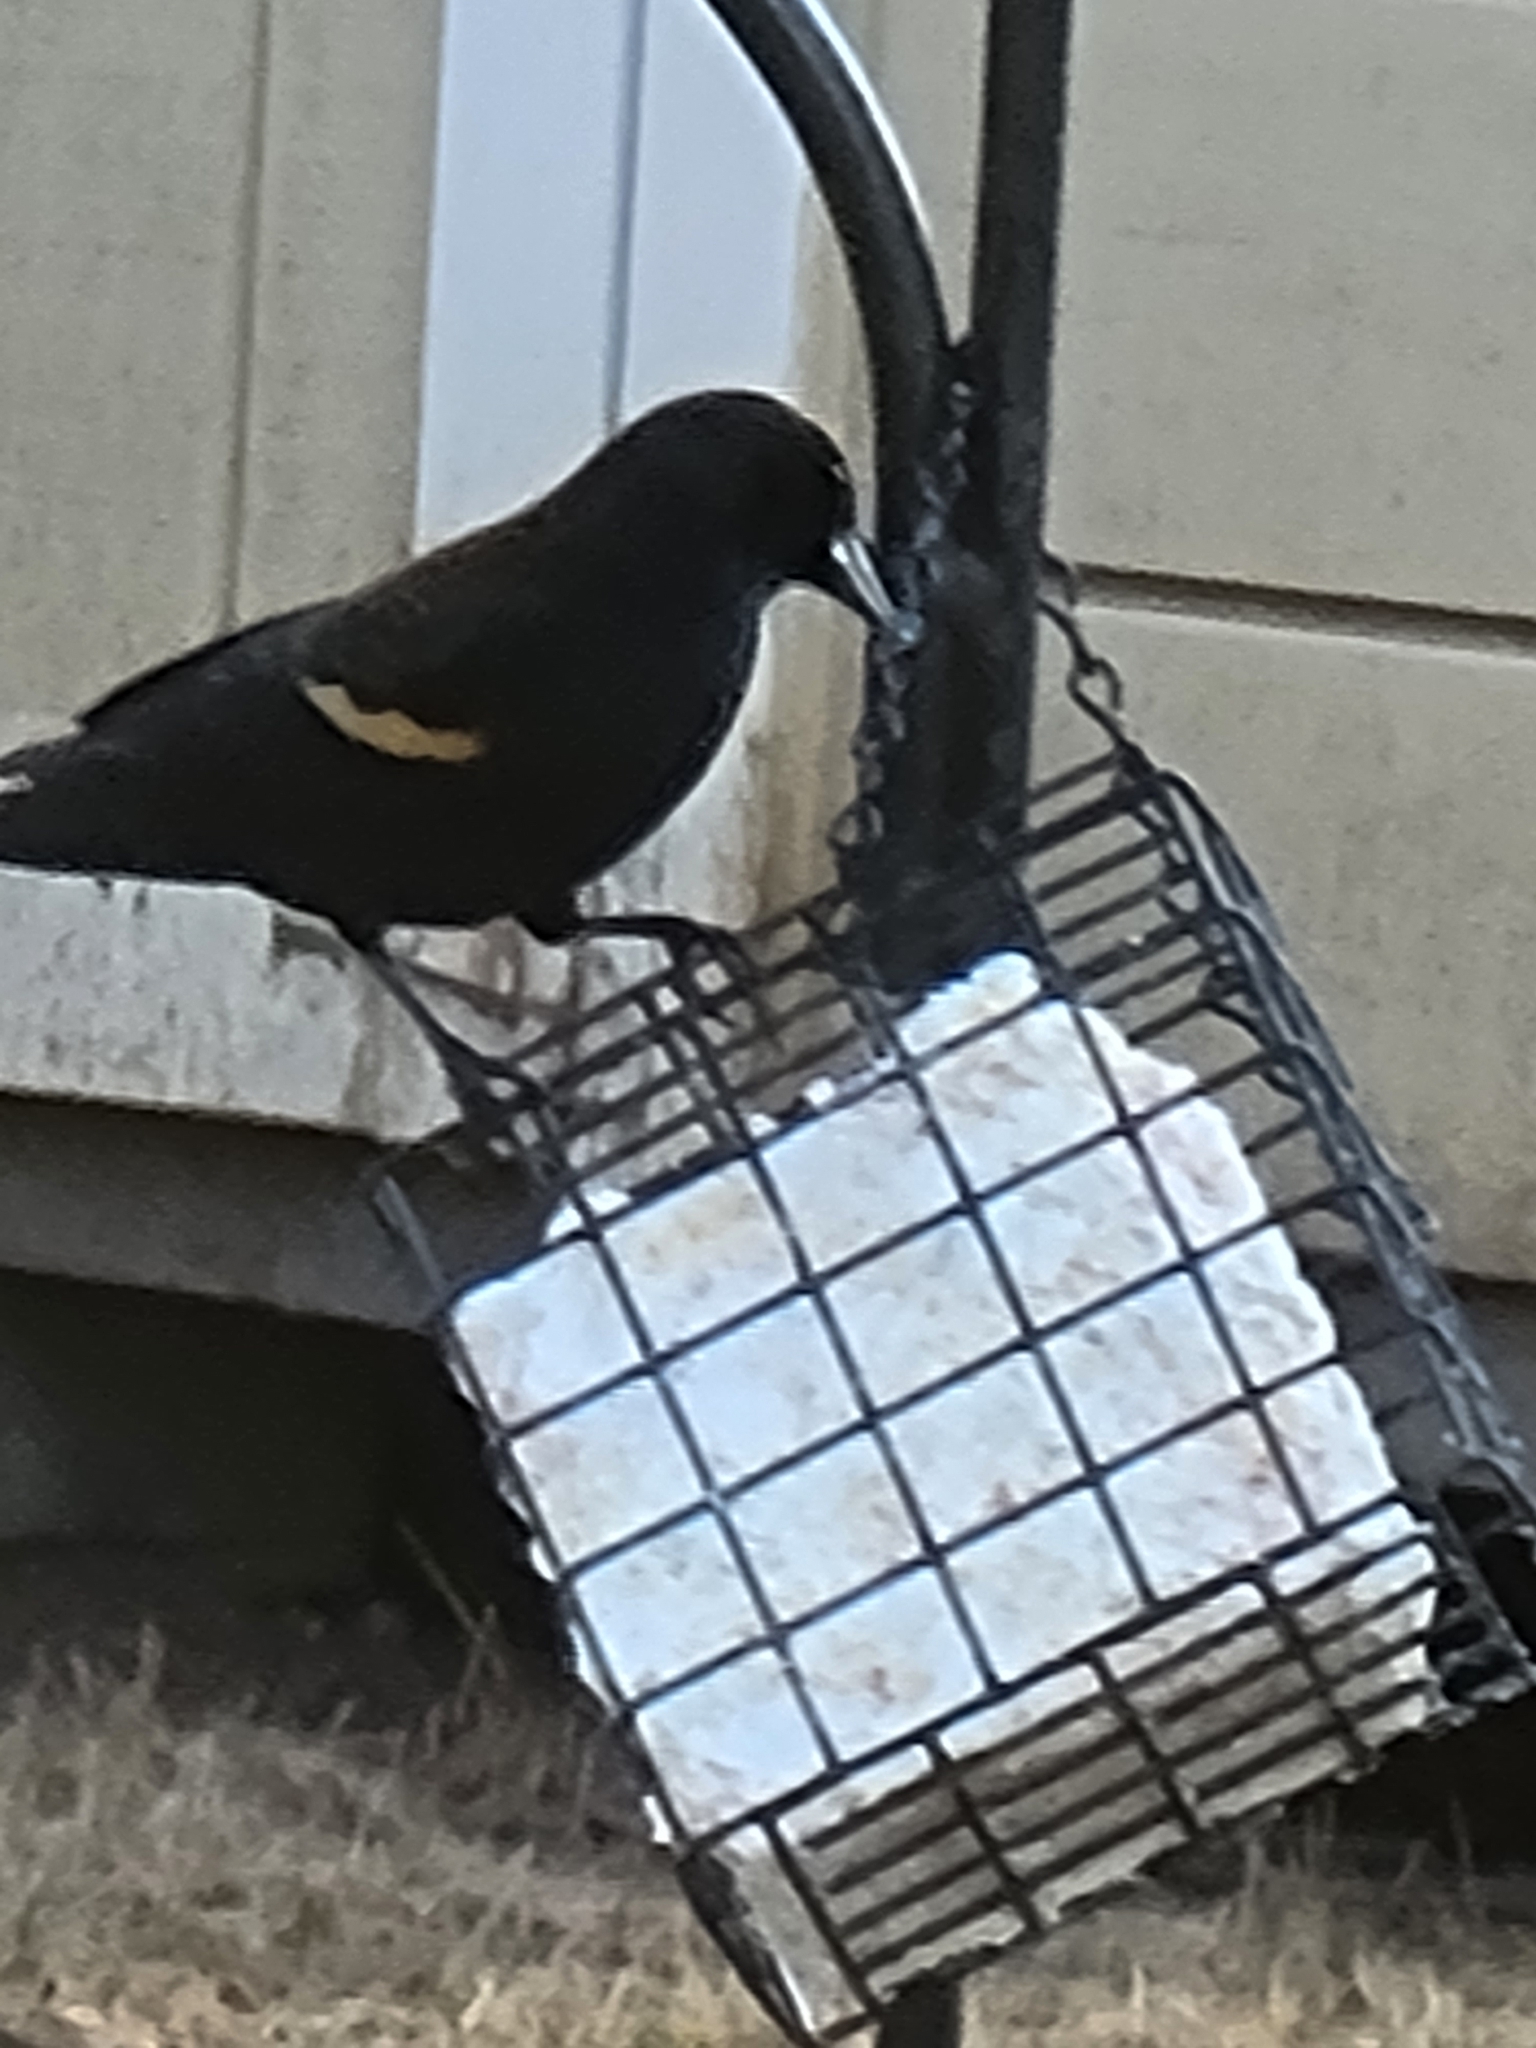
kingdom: Animalia
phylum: Chordata
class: Aves
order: Passeriformes
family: Icteridae
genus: Agelaius
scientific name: Agelaius phoeniceus
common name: Red-winged blackbird
